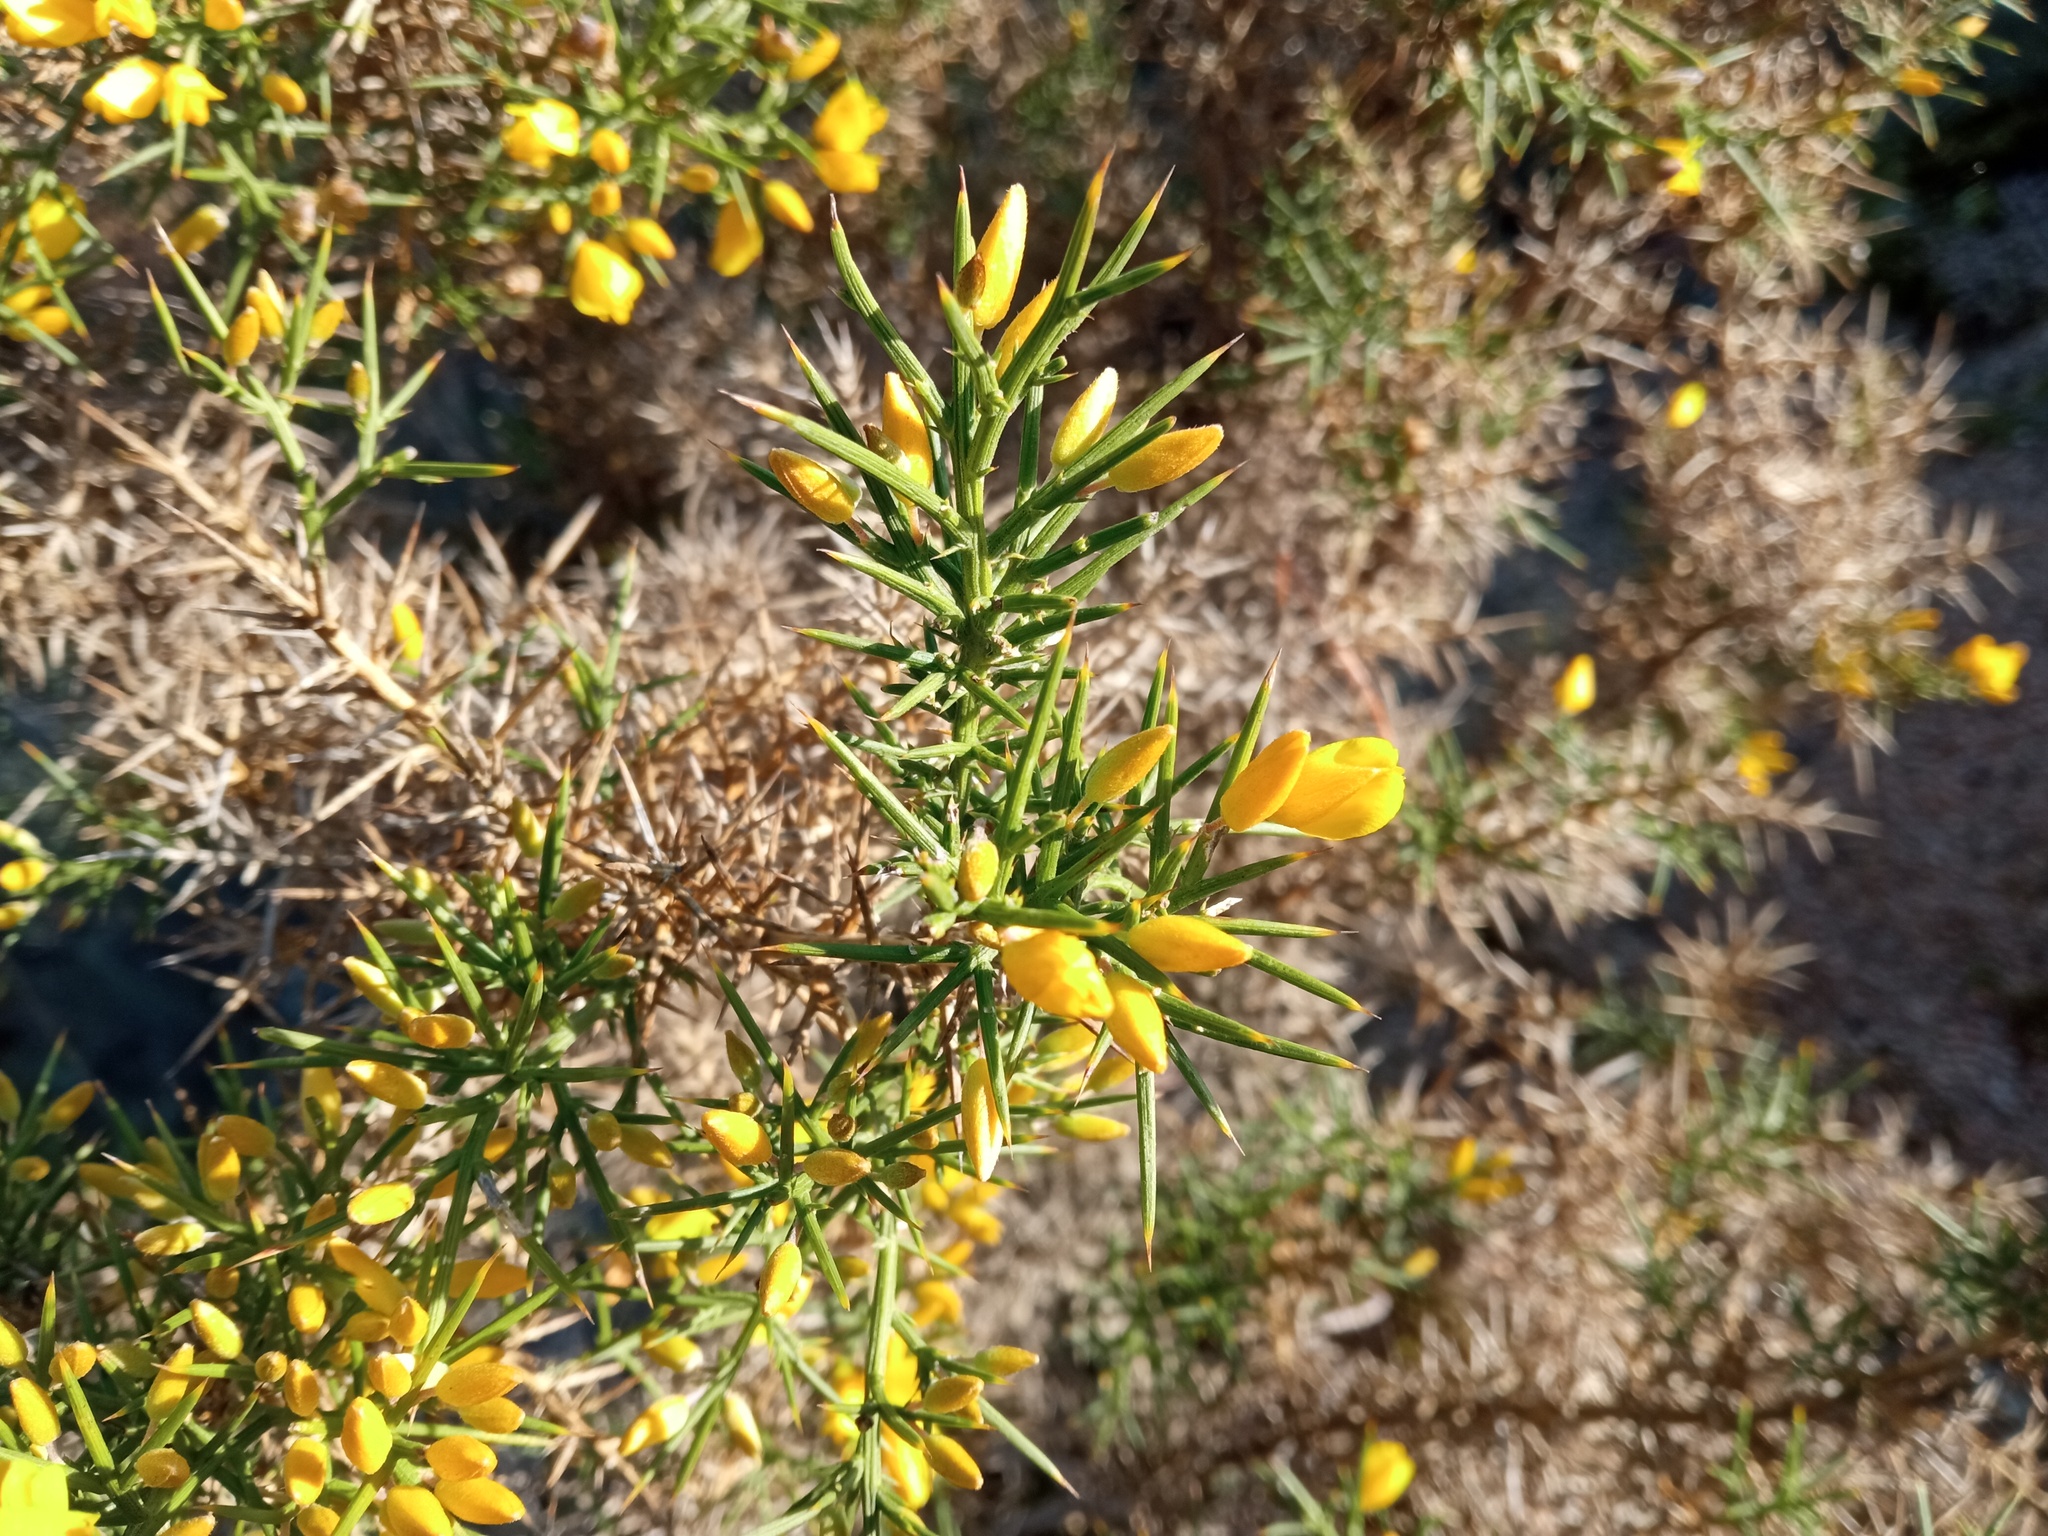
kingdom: Plantae
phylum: Tracheophyta
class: Magnoliopsida
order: Fabales
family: Fabaceae
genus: Ulex
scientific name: Ulex parviflorus
